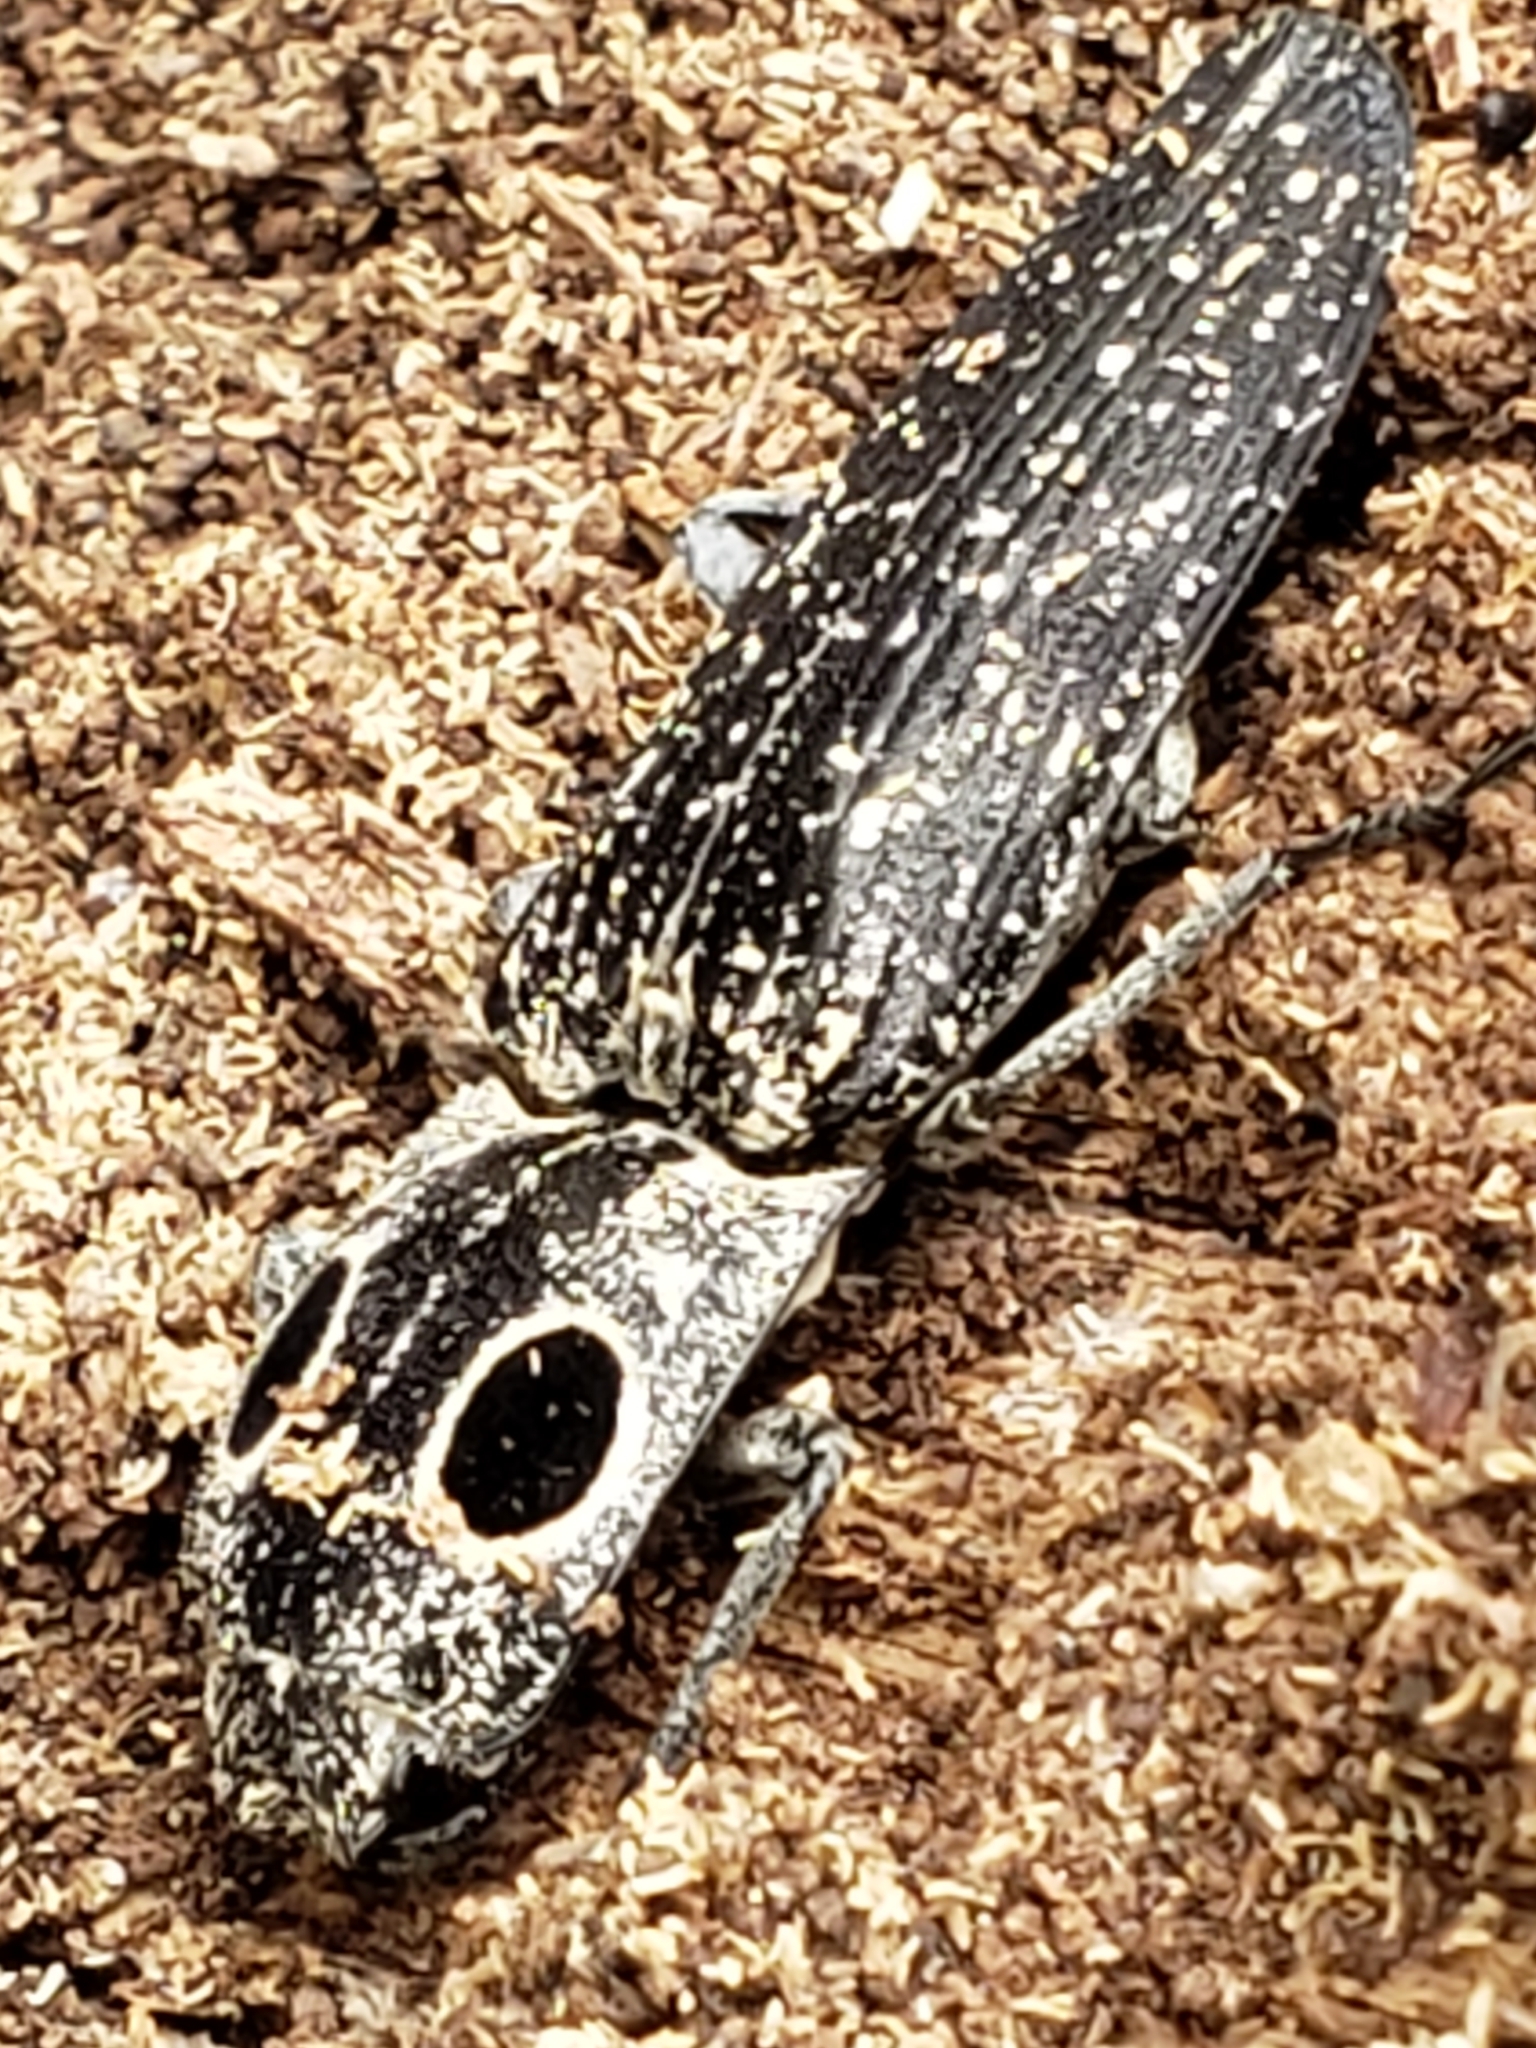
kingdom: Animalia
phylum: Arthropoda
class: Insecta
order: Coleoptera
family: Elateridae
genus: Alaus
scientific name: Alaus oculatus
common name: Eastern eyed click beetle
